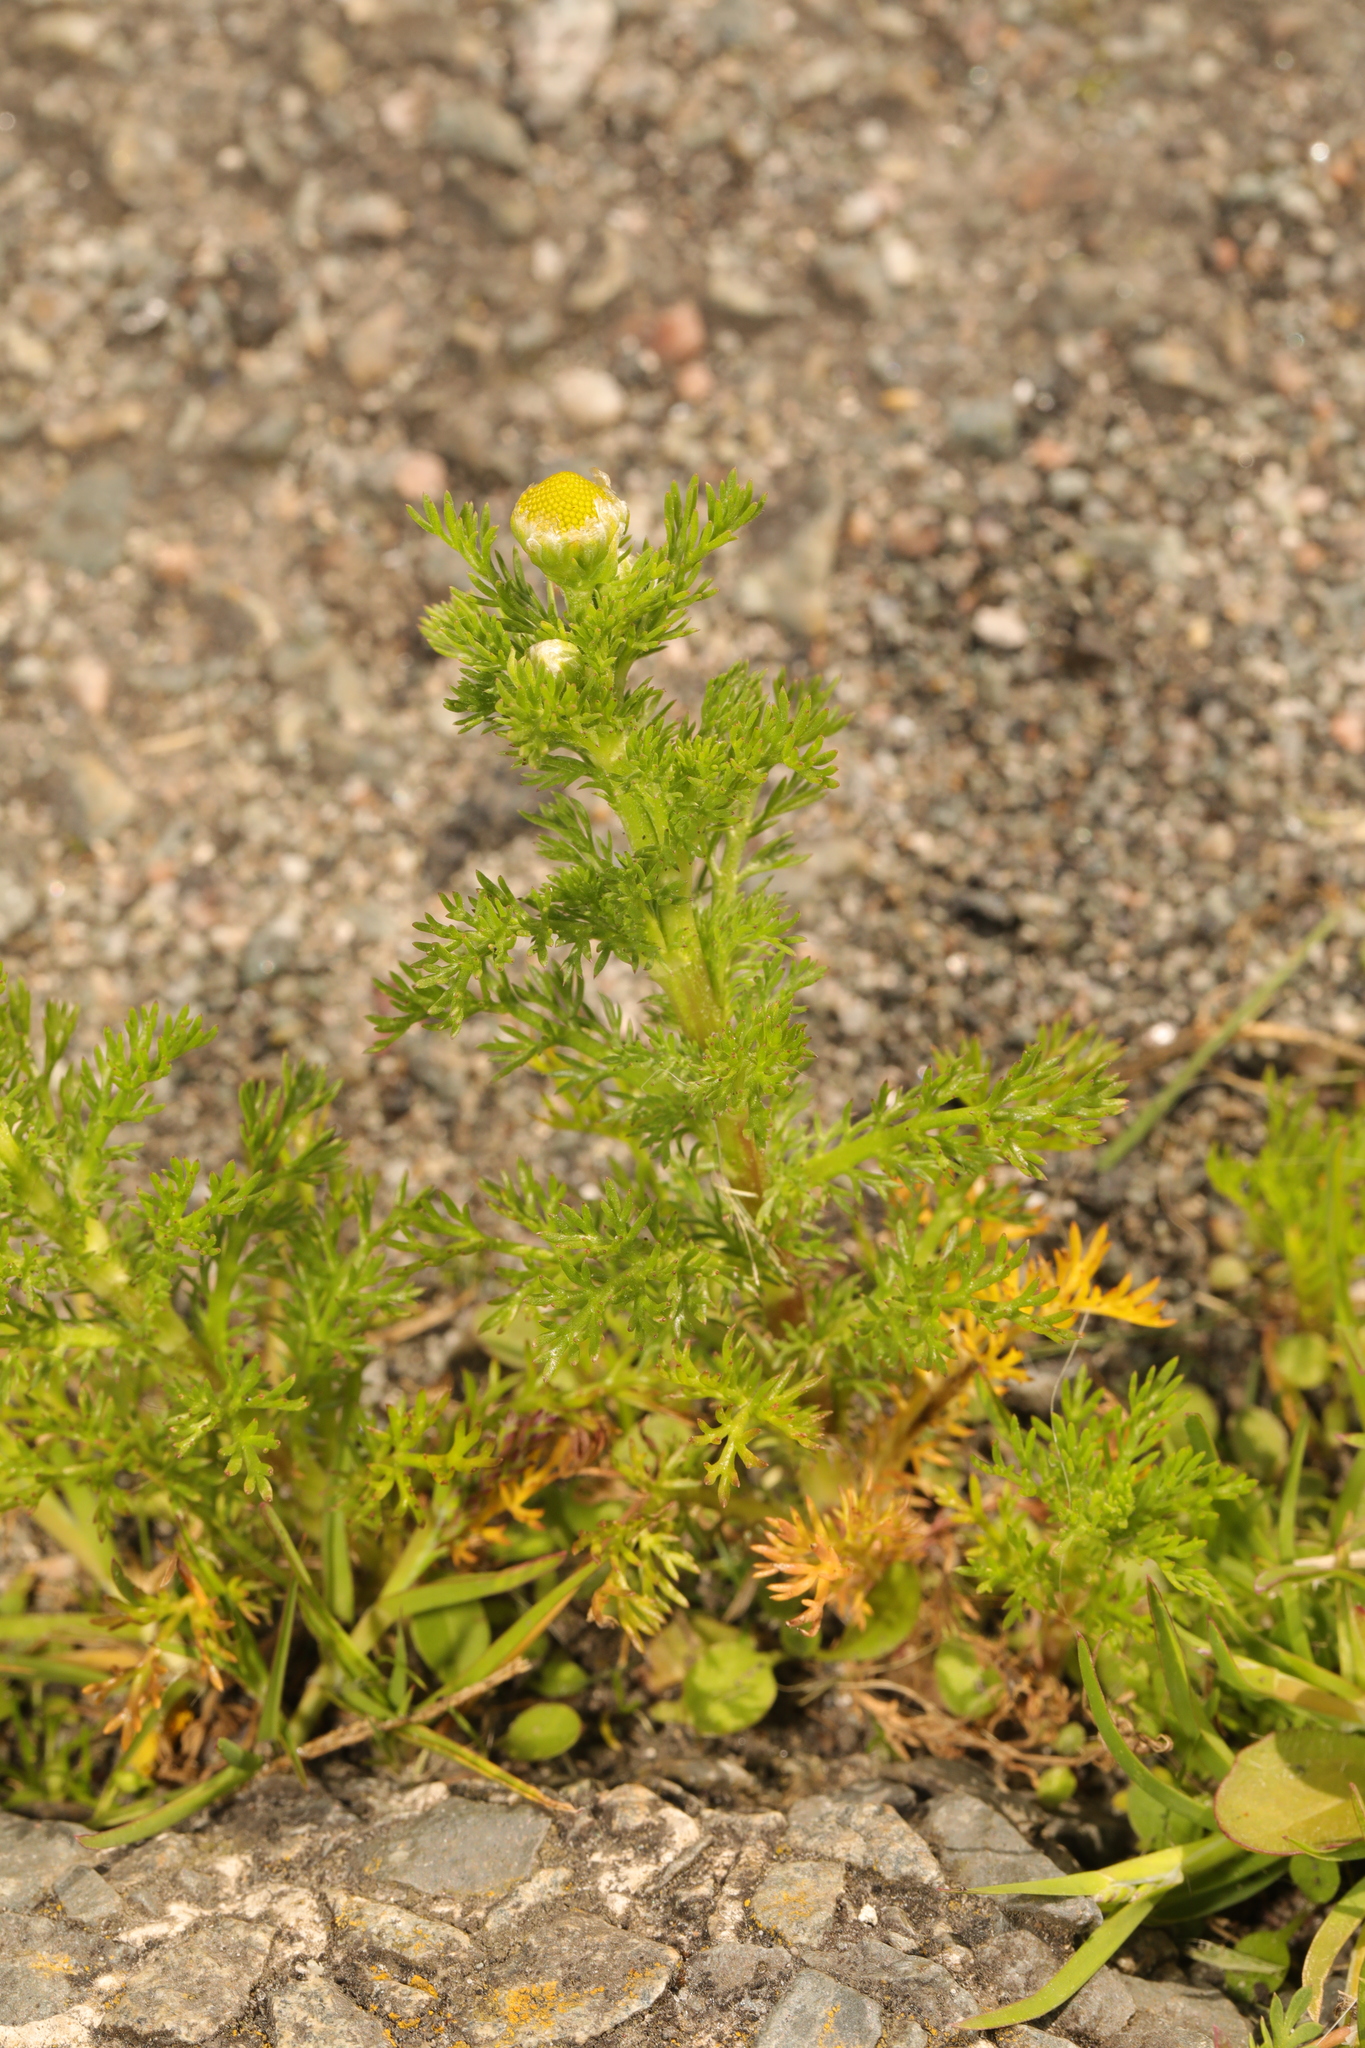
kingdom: Plantae
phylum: Tracheophyta
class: Magnoliopsida
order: Asterales
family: Asteraceae
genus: Matricaria
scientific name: Matricaria discoidea
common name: Disc mayweed
